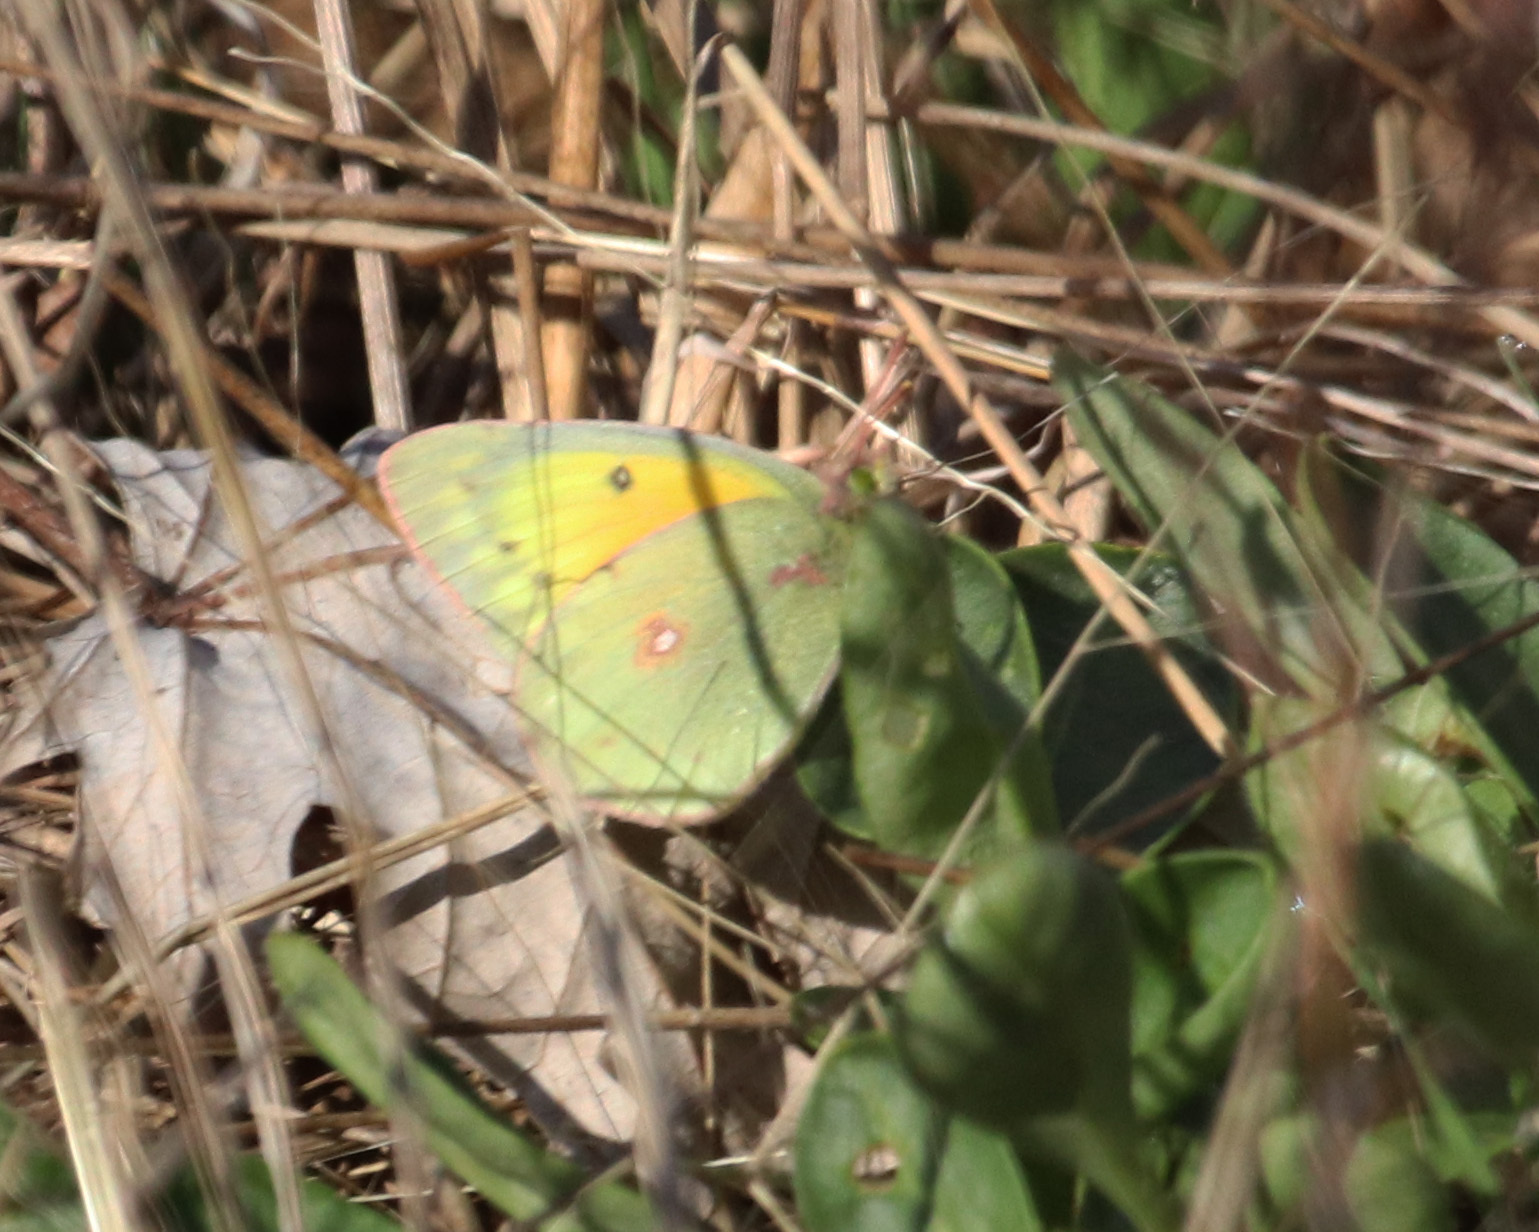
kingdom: Animalia
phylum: Arthropoda
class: Insecta
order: Lepidoptera
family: Pieridae
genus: Colias
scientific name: Colias eurytheme
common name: Alfalfa butterfly
